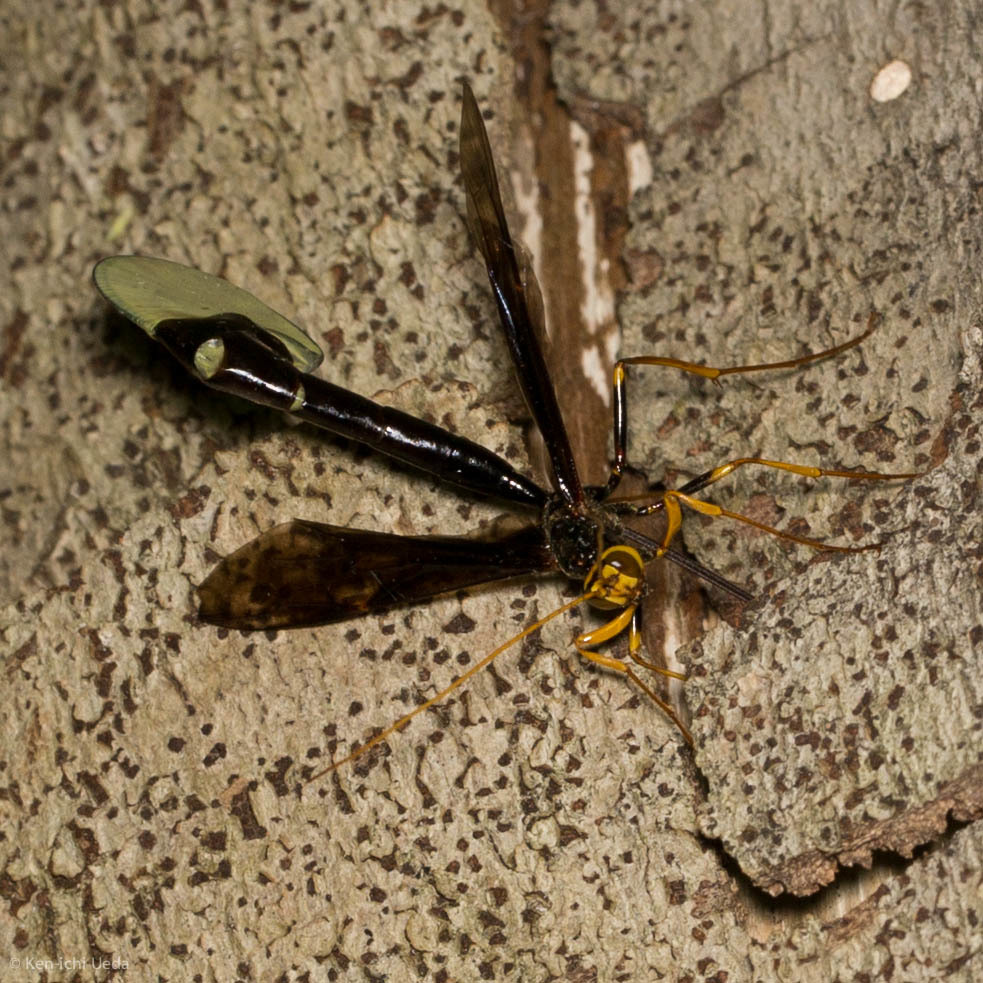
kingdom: Animalia
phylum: Arthropoda
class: Insecta
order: Hymenoptera
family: Ichneumonidae
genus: Megarhyssa
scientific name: Megarhyssa atrata
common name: Black giant ichneumonid wasp
